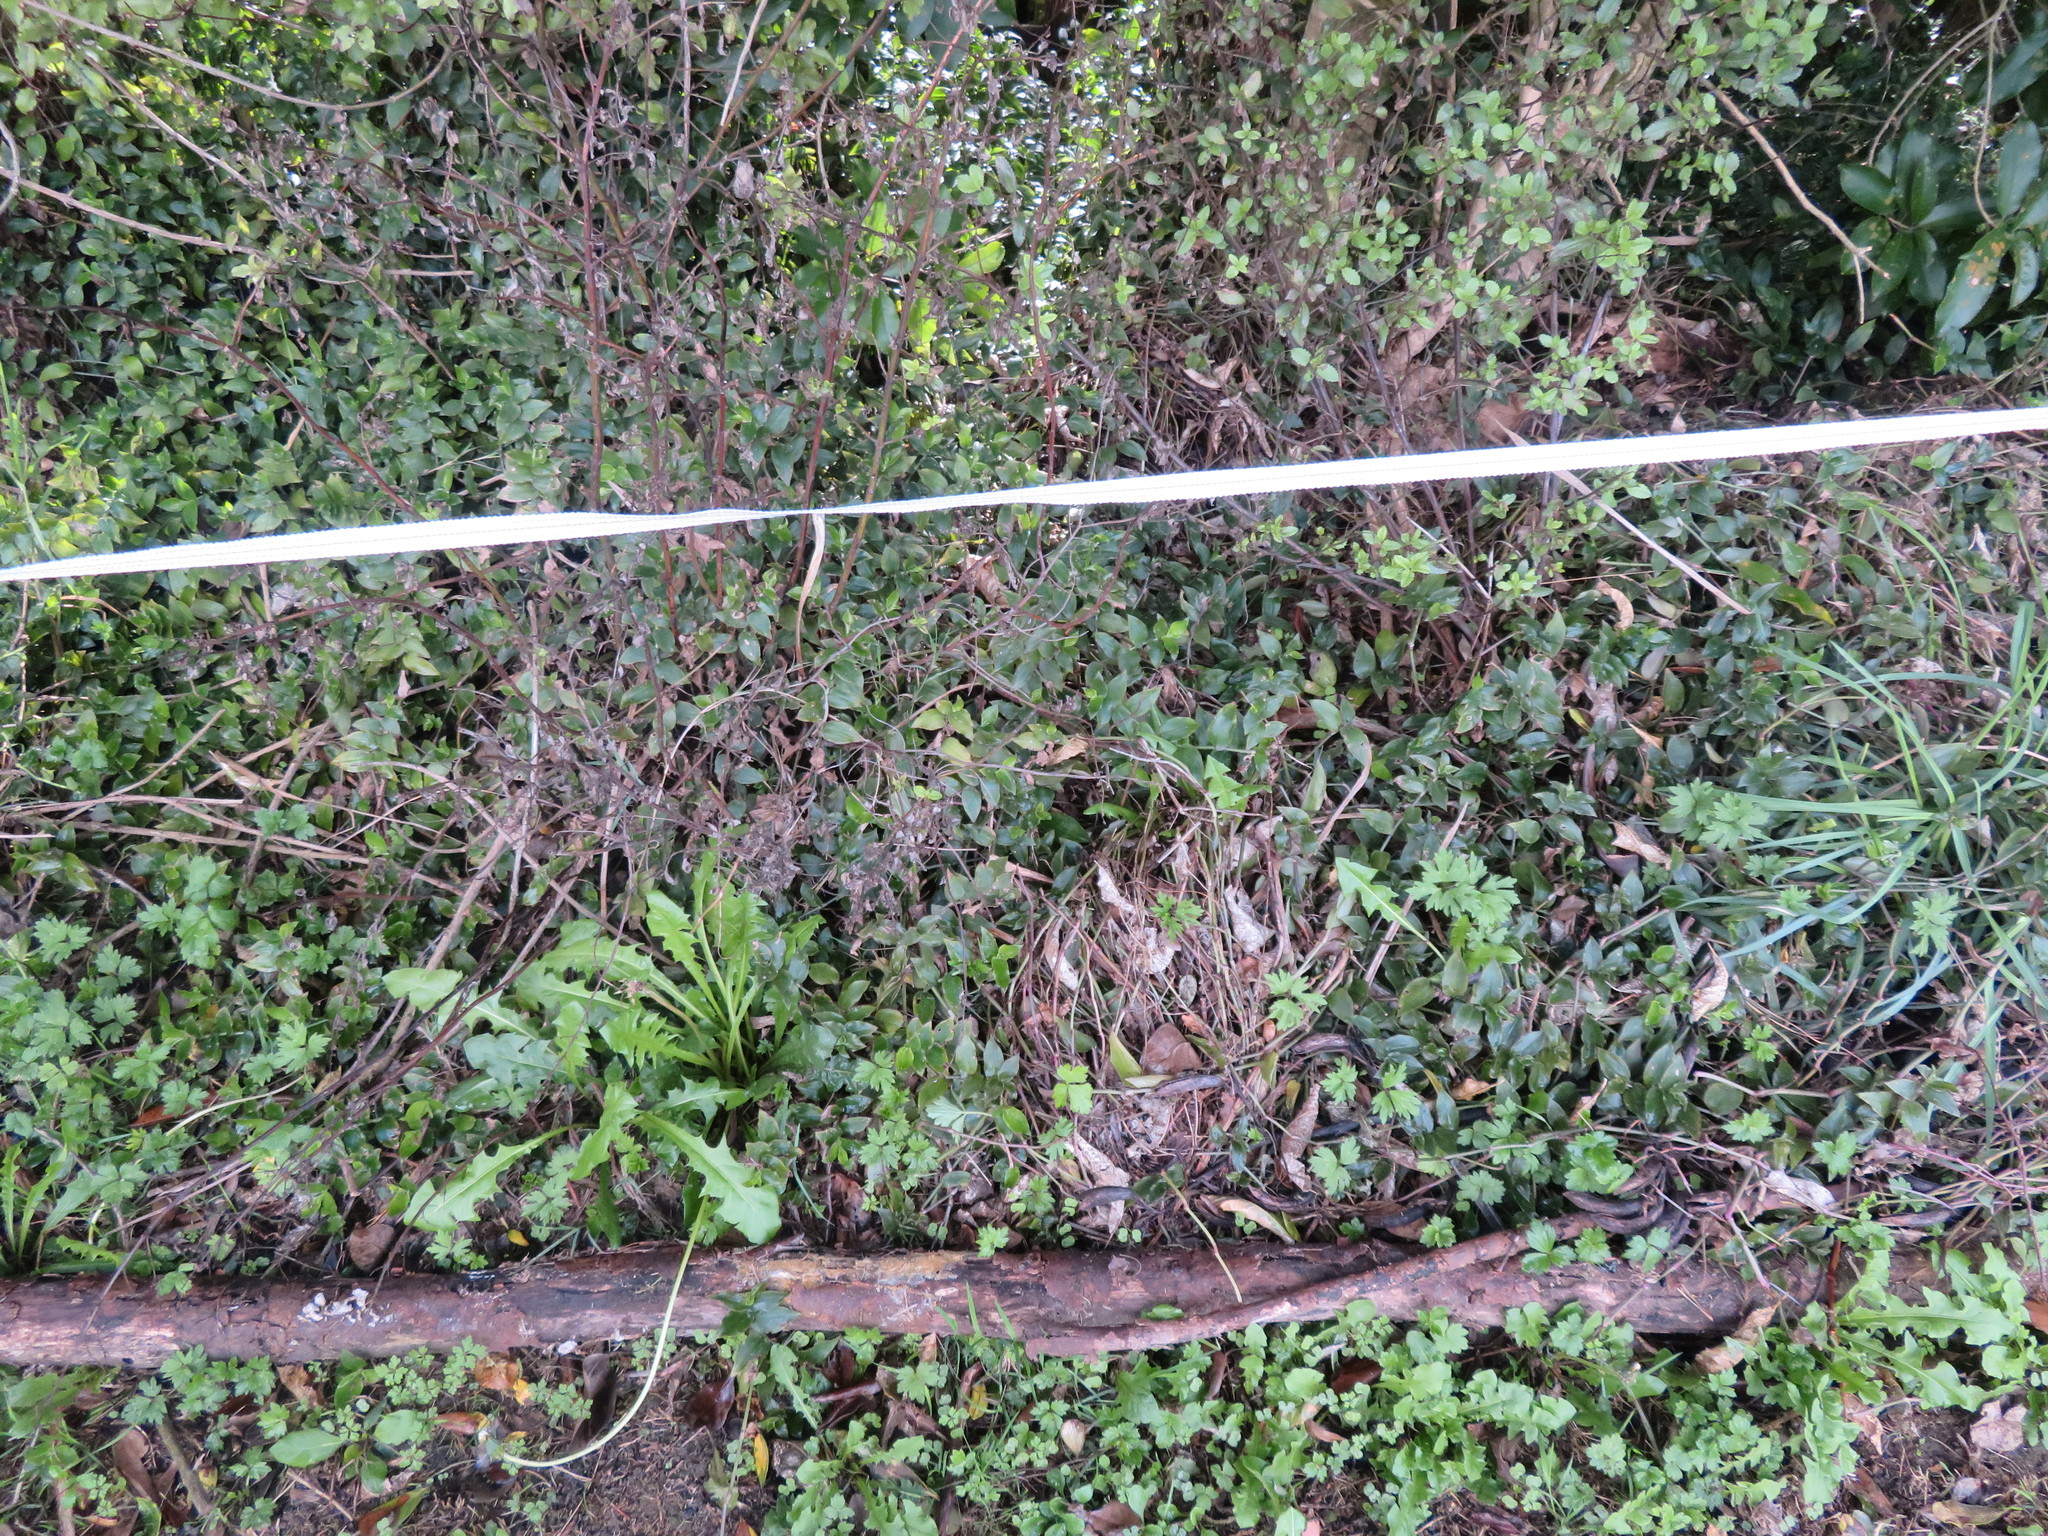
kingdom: Plantae
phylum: Tracheophyta
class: Magnoliopsida
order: Saxifragales
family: Haloragaceae
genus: Haloragis
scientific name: Haloragis erecta
